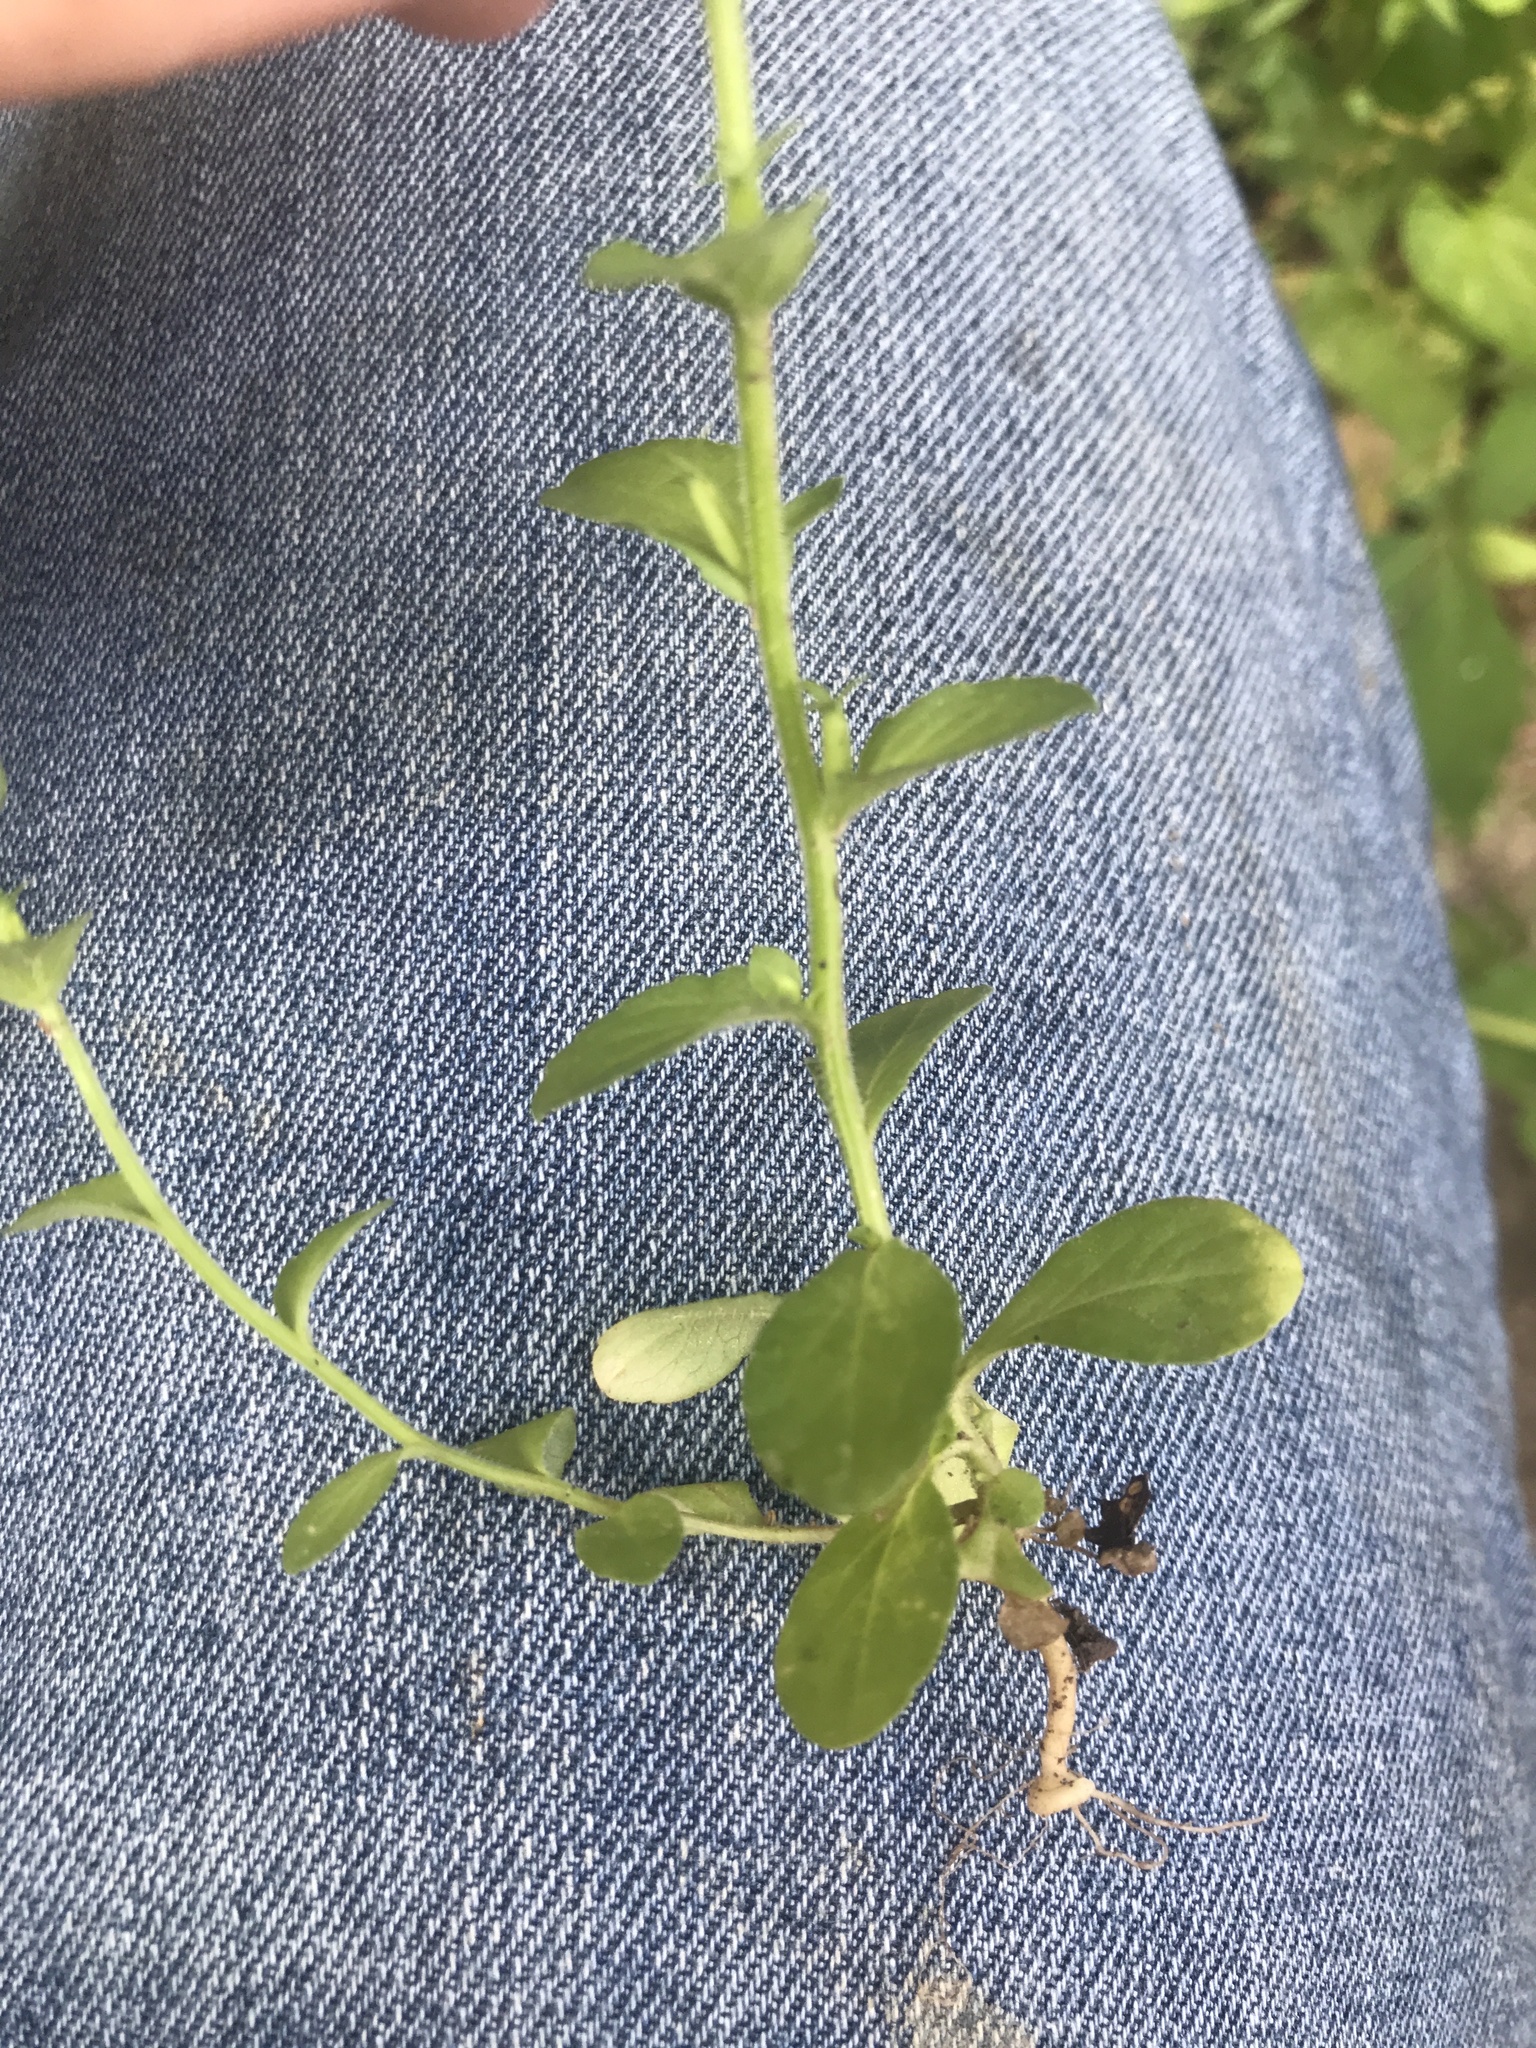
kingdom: Plantae
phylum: Tracheophyta
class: Magnoliopsida
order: Asterales
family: Campanulaceae
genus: Triodanis
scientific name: Triodanis perfoliata
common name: Clasping venus' looking-glass
